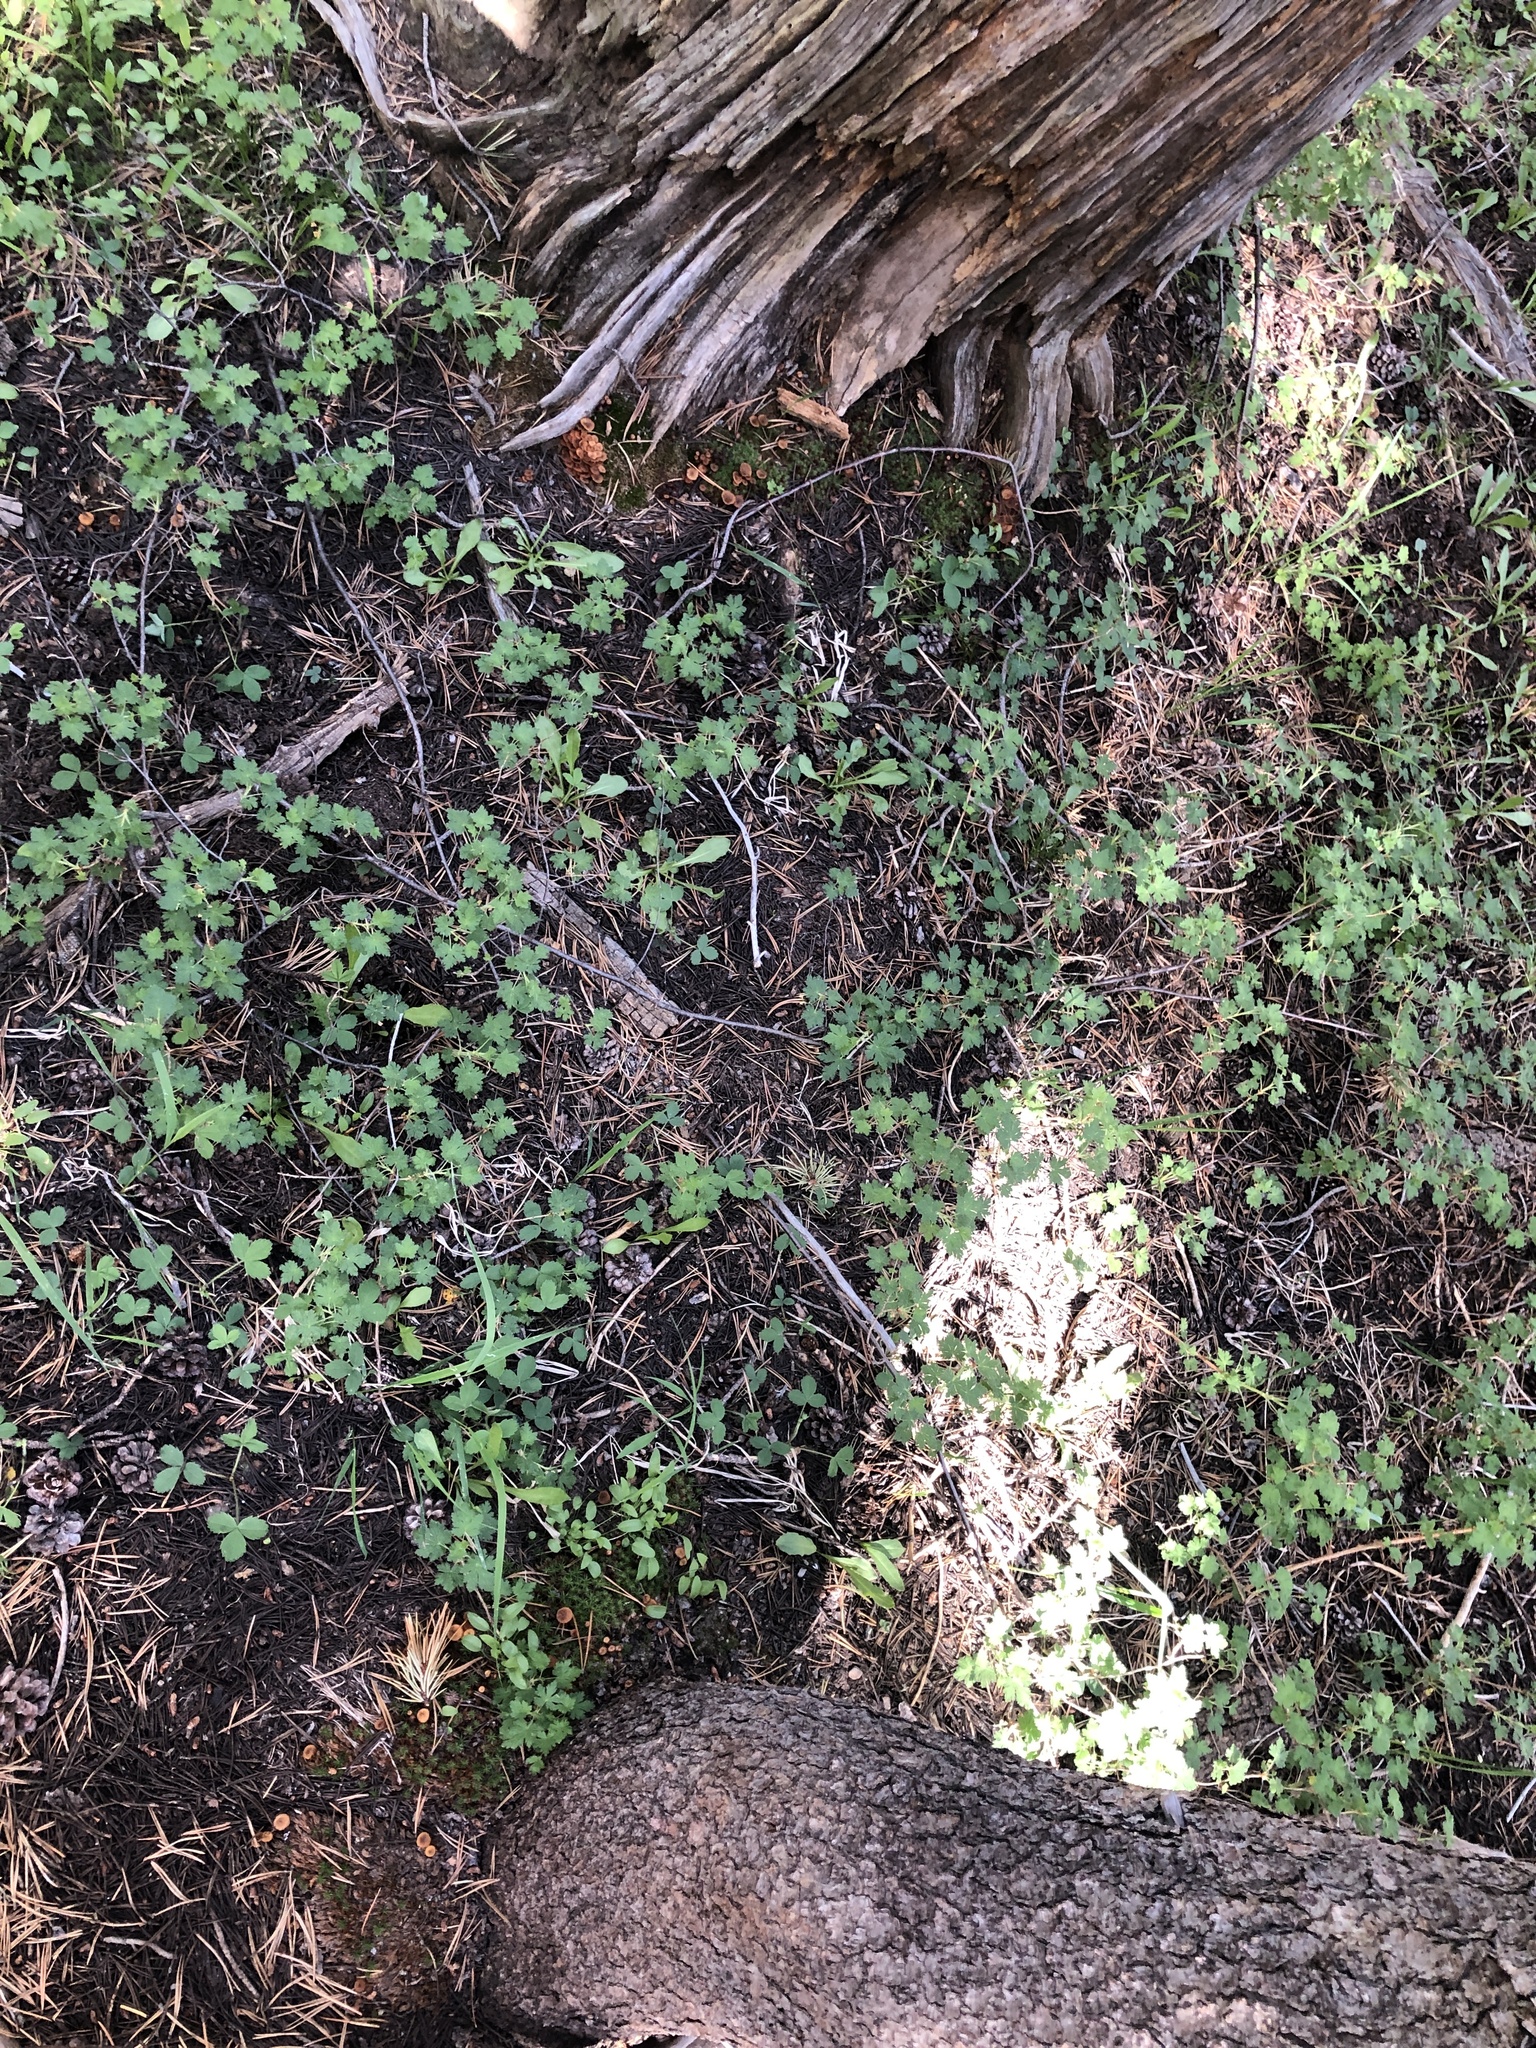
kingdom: Fungi
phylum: Basidiomycota
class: Agaricomycetes
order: Agaricales
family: Mycenaceae
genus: Xeromphalina
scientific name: Xeromphalina campanella
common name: Pinewood gingertail
